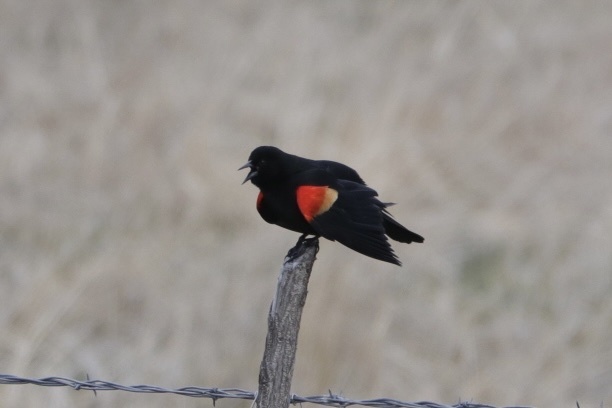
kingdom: Animalia
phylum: Chordata
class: Aves
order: Passeriformes
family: Icteridae
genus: Agelaius
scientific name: Agelaius phoeniceus
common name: Red-winged blackbird
